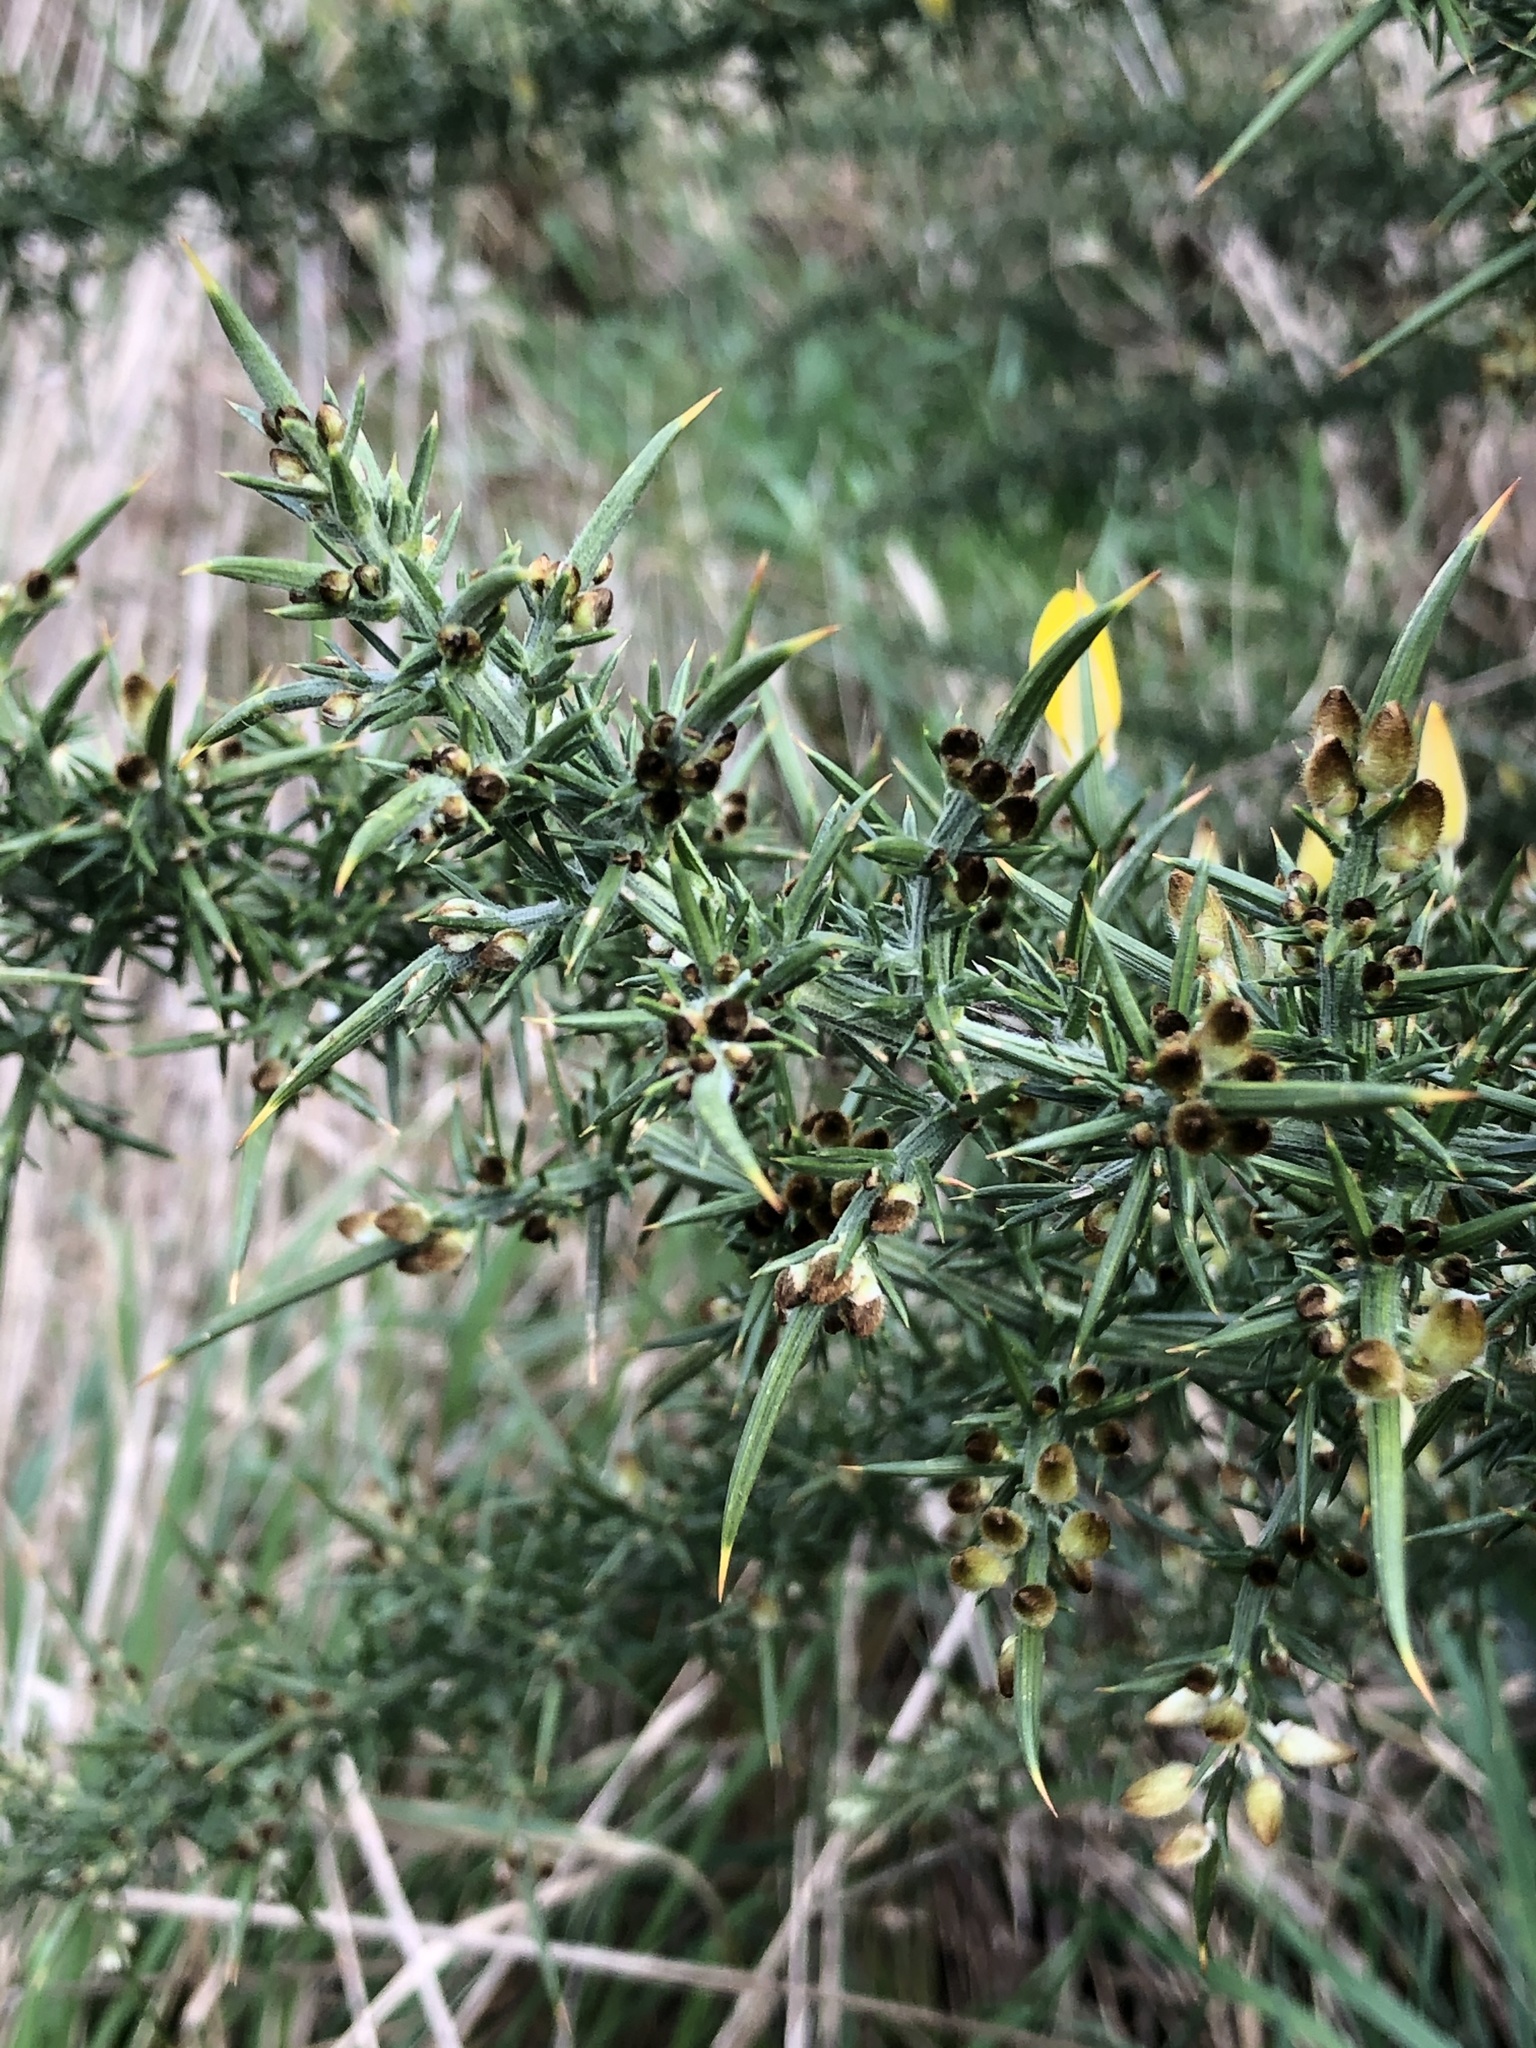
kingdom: Plantae
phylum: Tracheophyta
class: Magnoliopsida
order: Fabales
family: Fabaceae
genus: Ulex
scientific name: Ulex europaeus
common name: Common gorse
